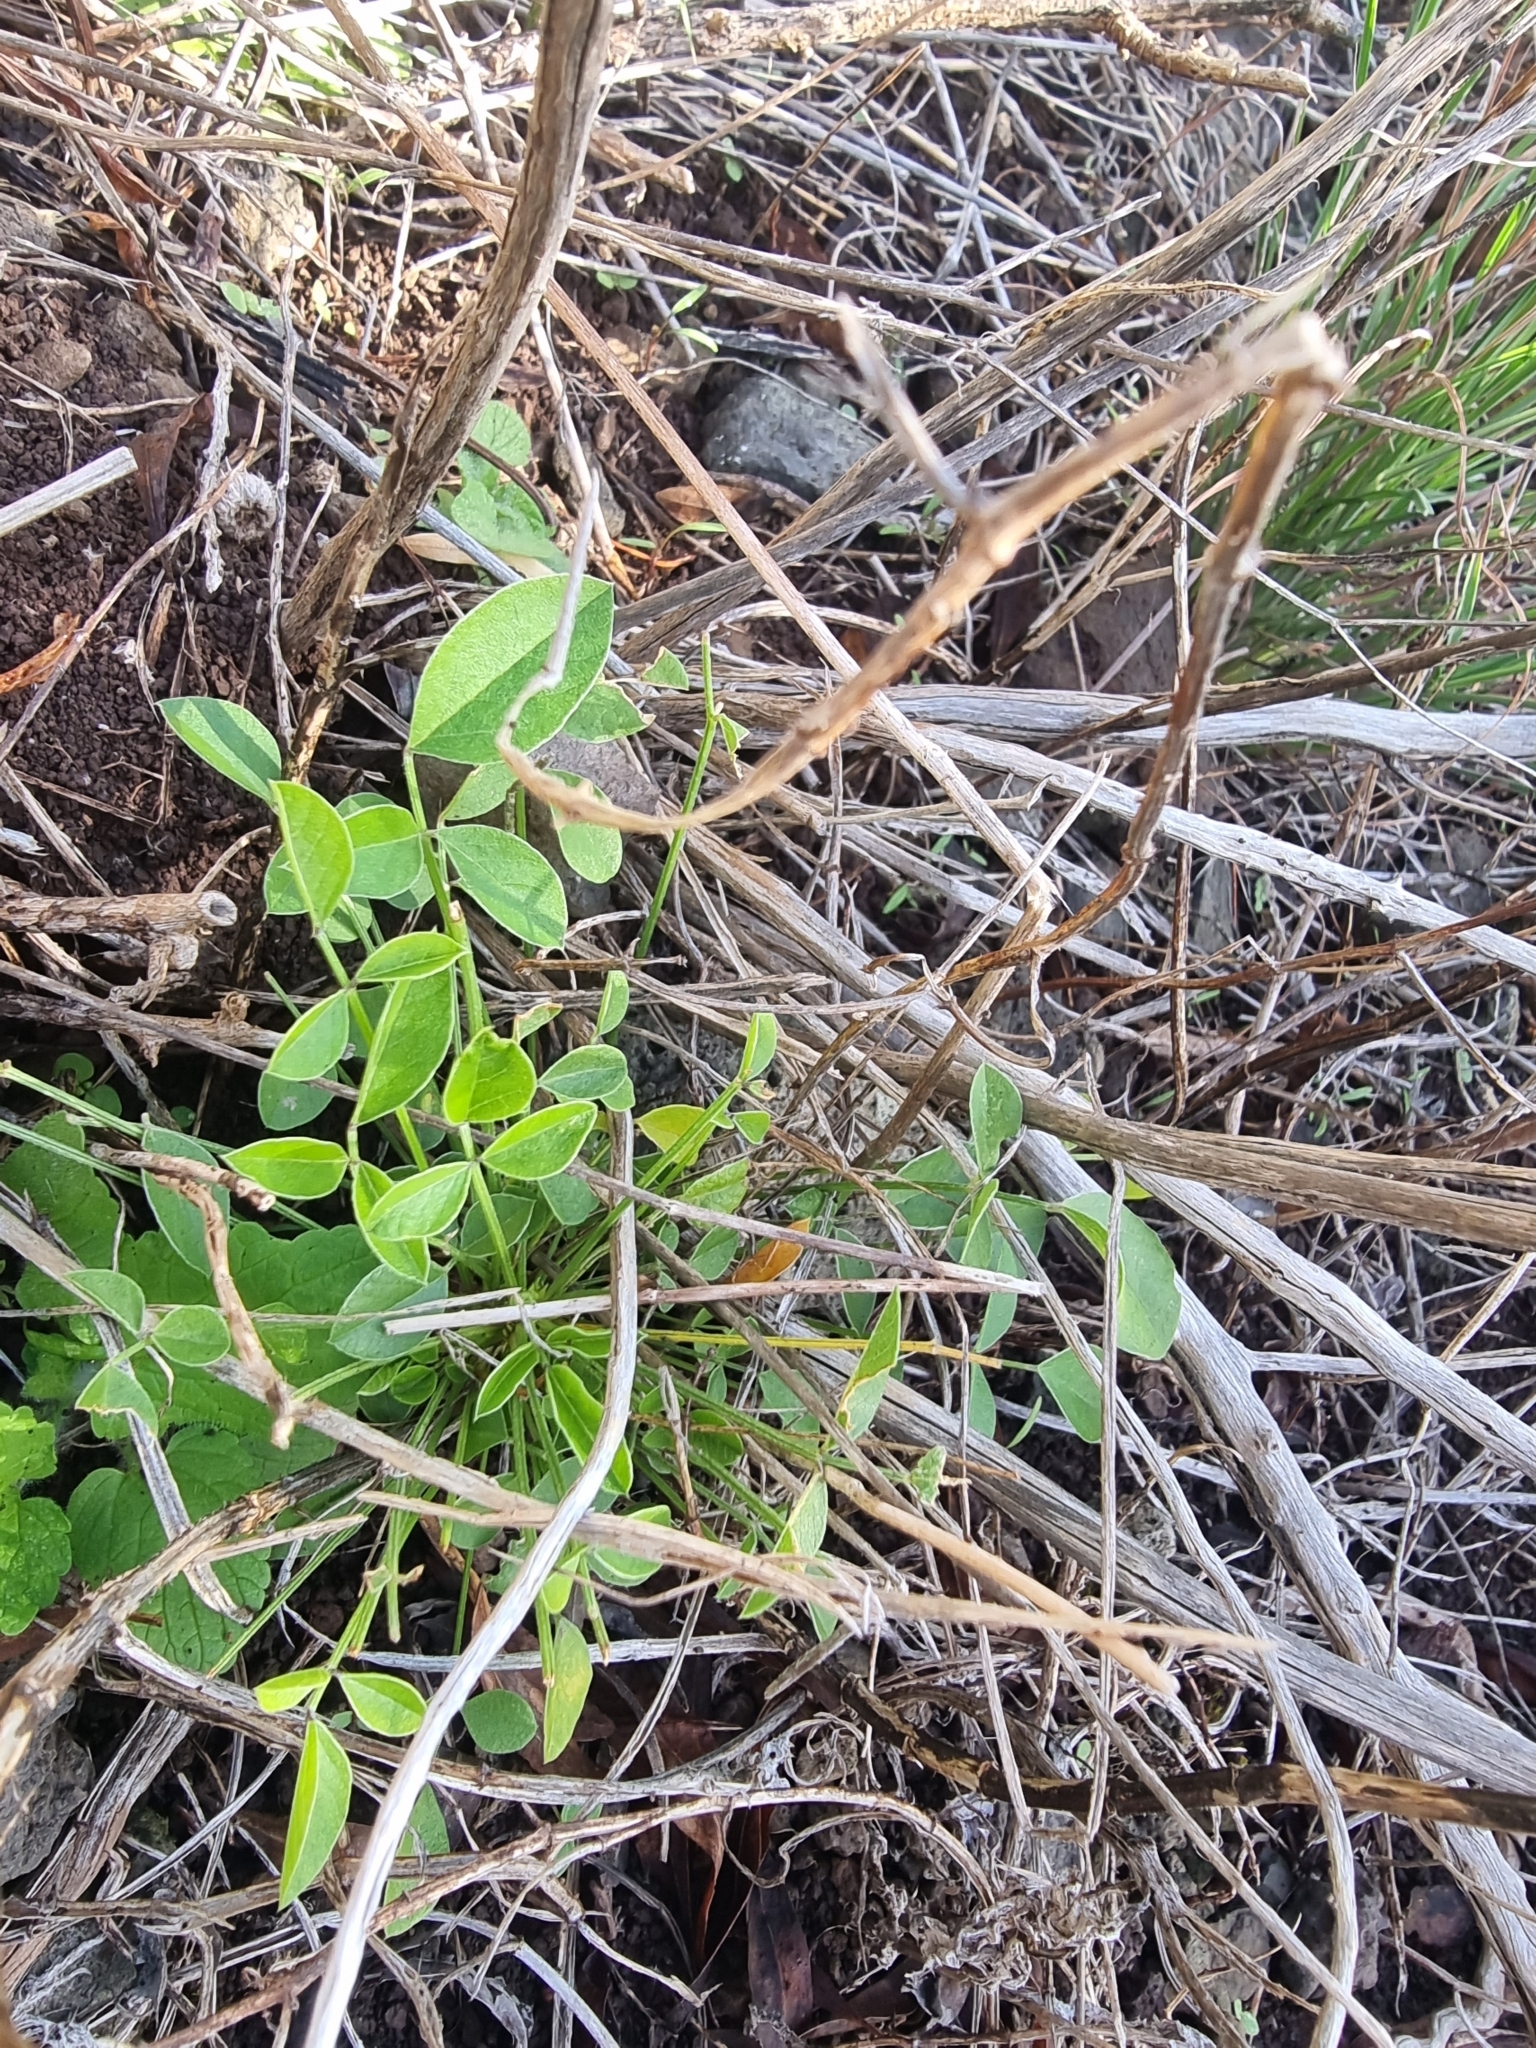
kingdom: Plantae
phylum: Tracheophyta
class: Magnoliopsida
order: Fabales
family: Fabaceae
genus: Bituminaria
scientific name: Bituminaria bituminosa
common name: Arabian pea
